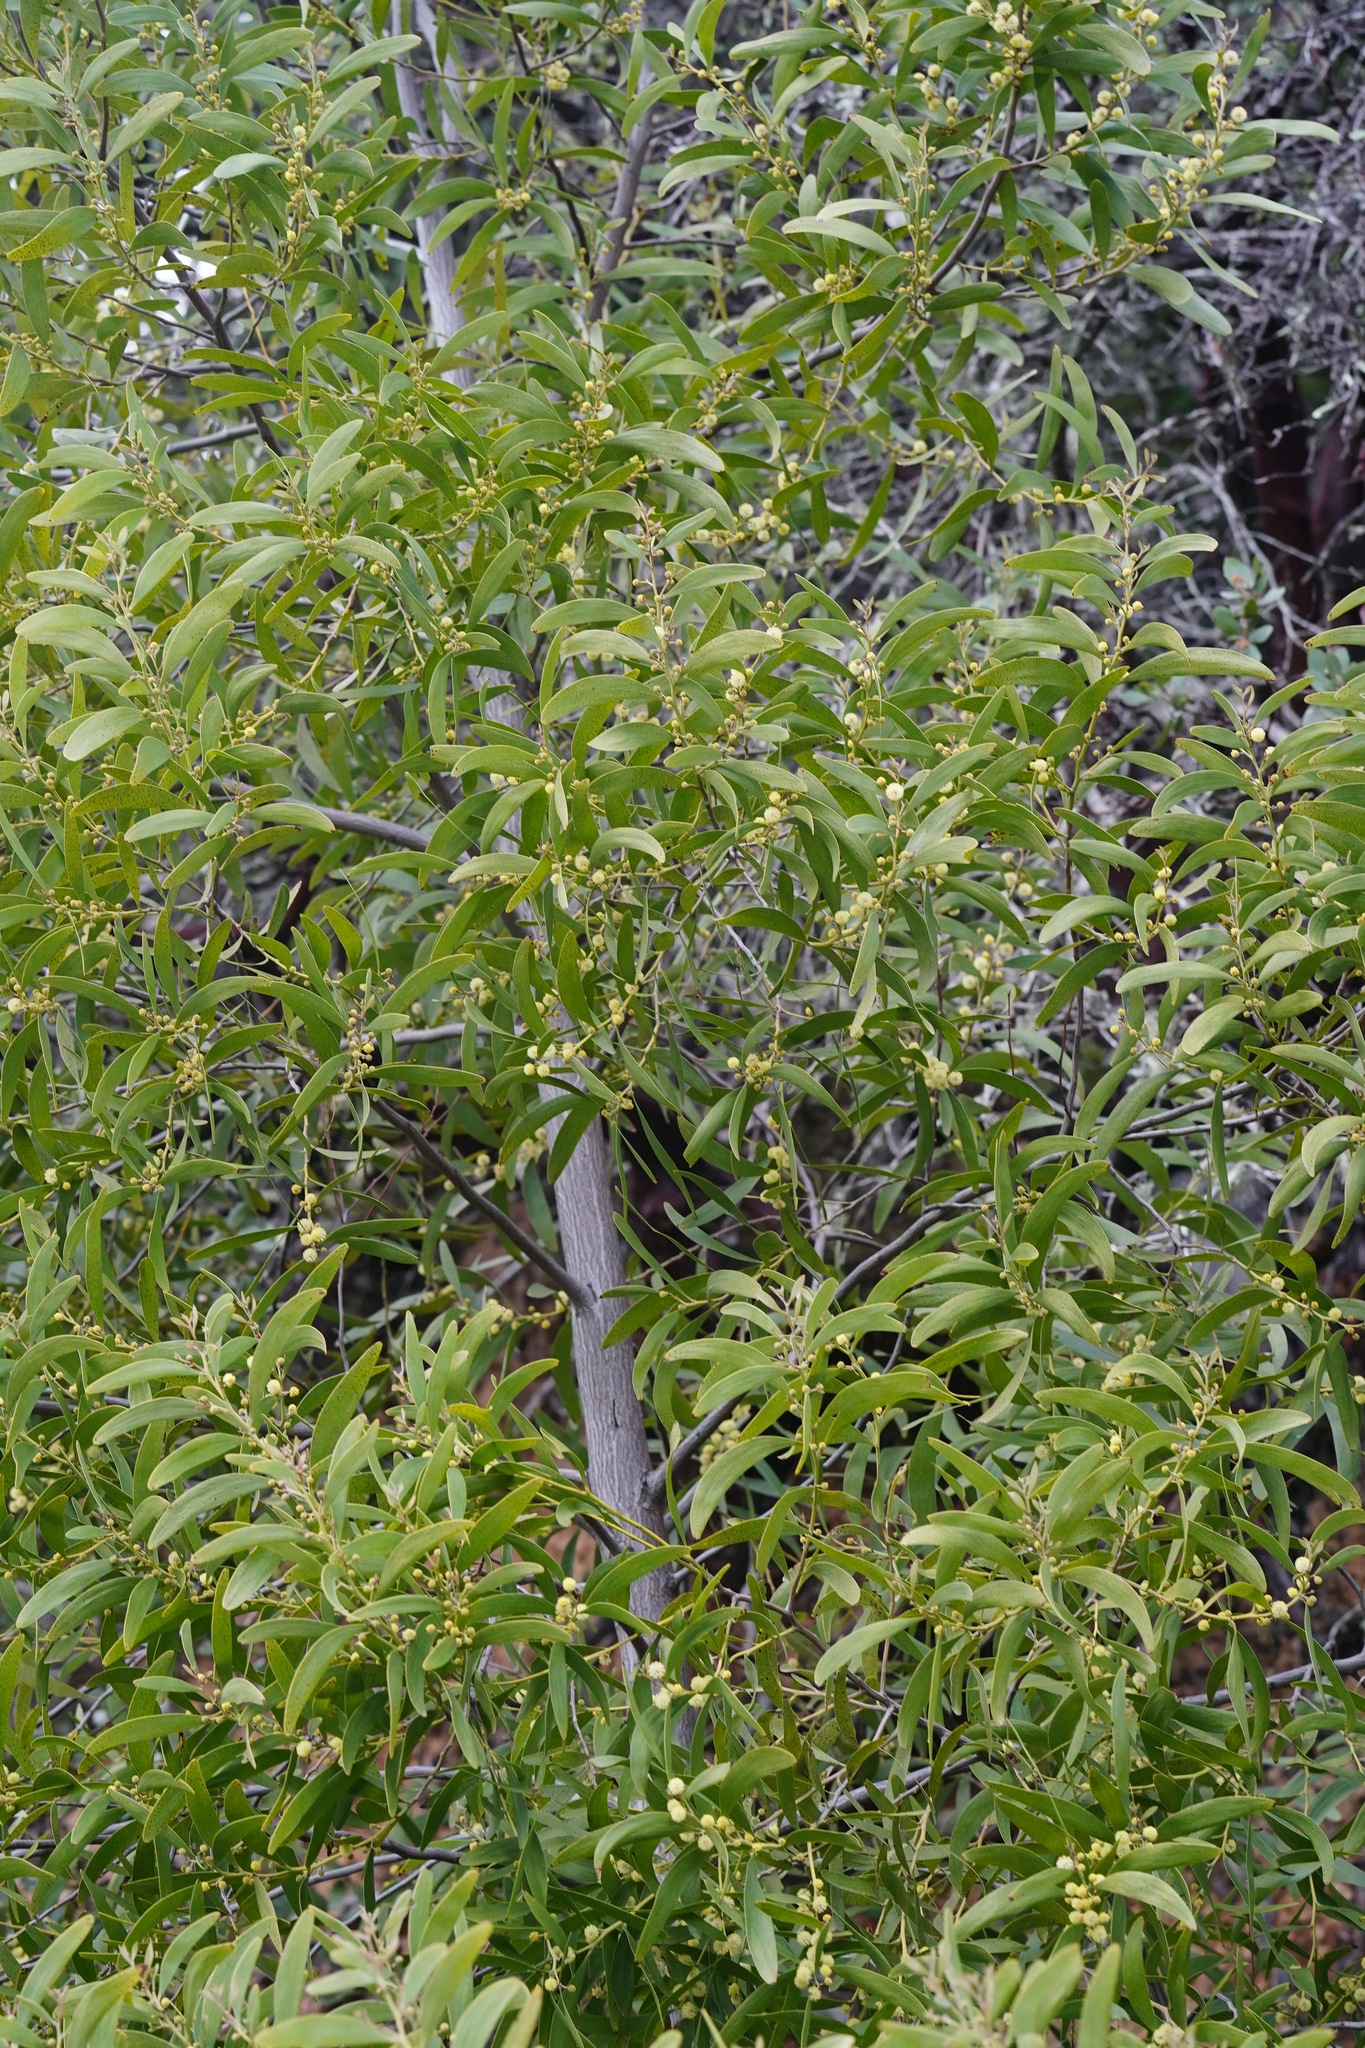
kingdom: Plantae
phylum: Tracheophyta
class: Magnoliopsida
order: Fabales
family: Fabaceae
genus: Acacia
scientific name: Acacia melanoxylon
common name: Blackwood
